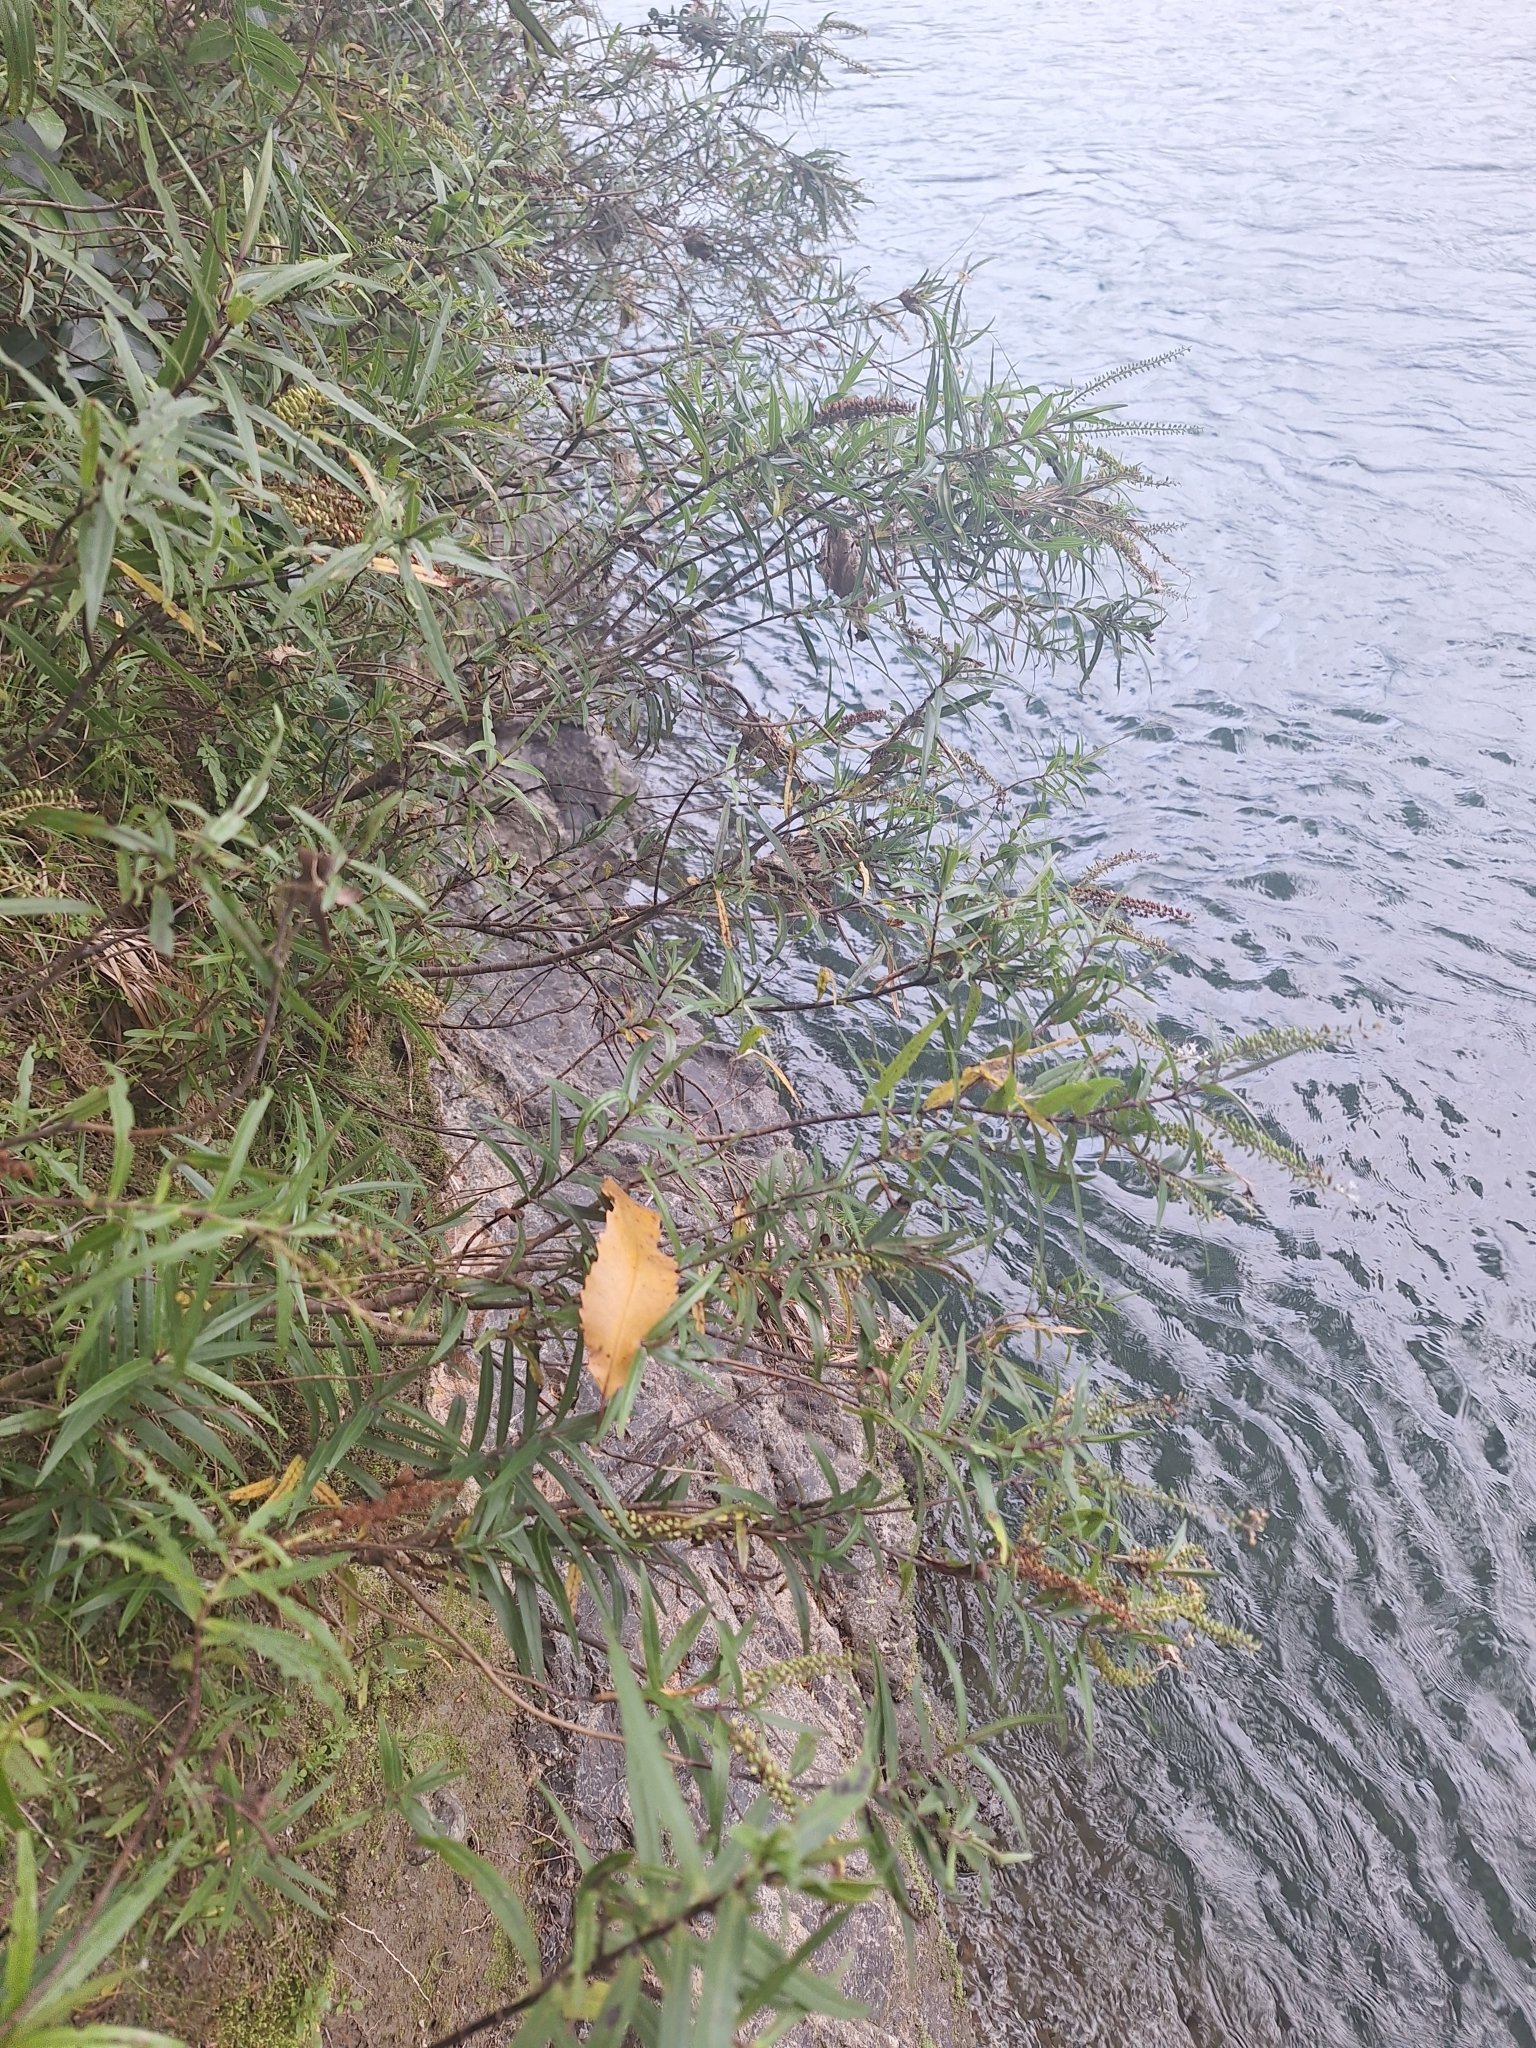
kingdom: Plantae
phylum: Tracheophyta
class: Magnoliopsida
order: Lamiales
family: Plantaginaceae
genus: Veronica
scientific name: Veronica angustissima
